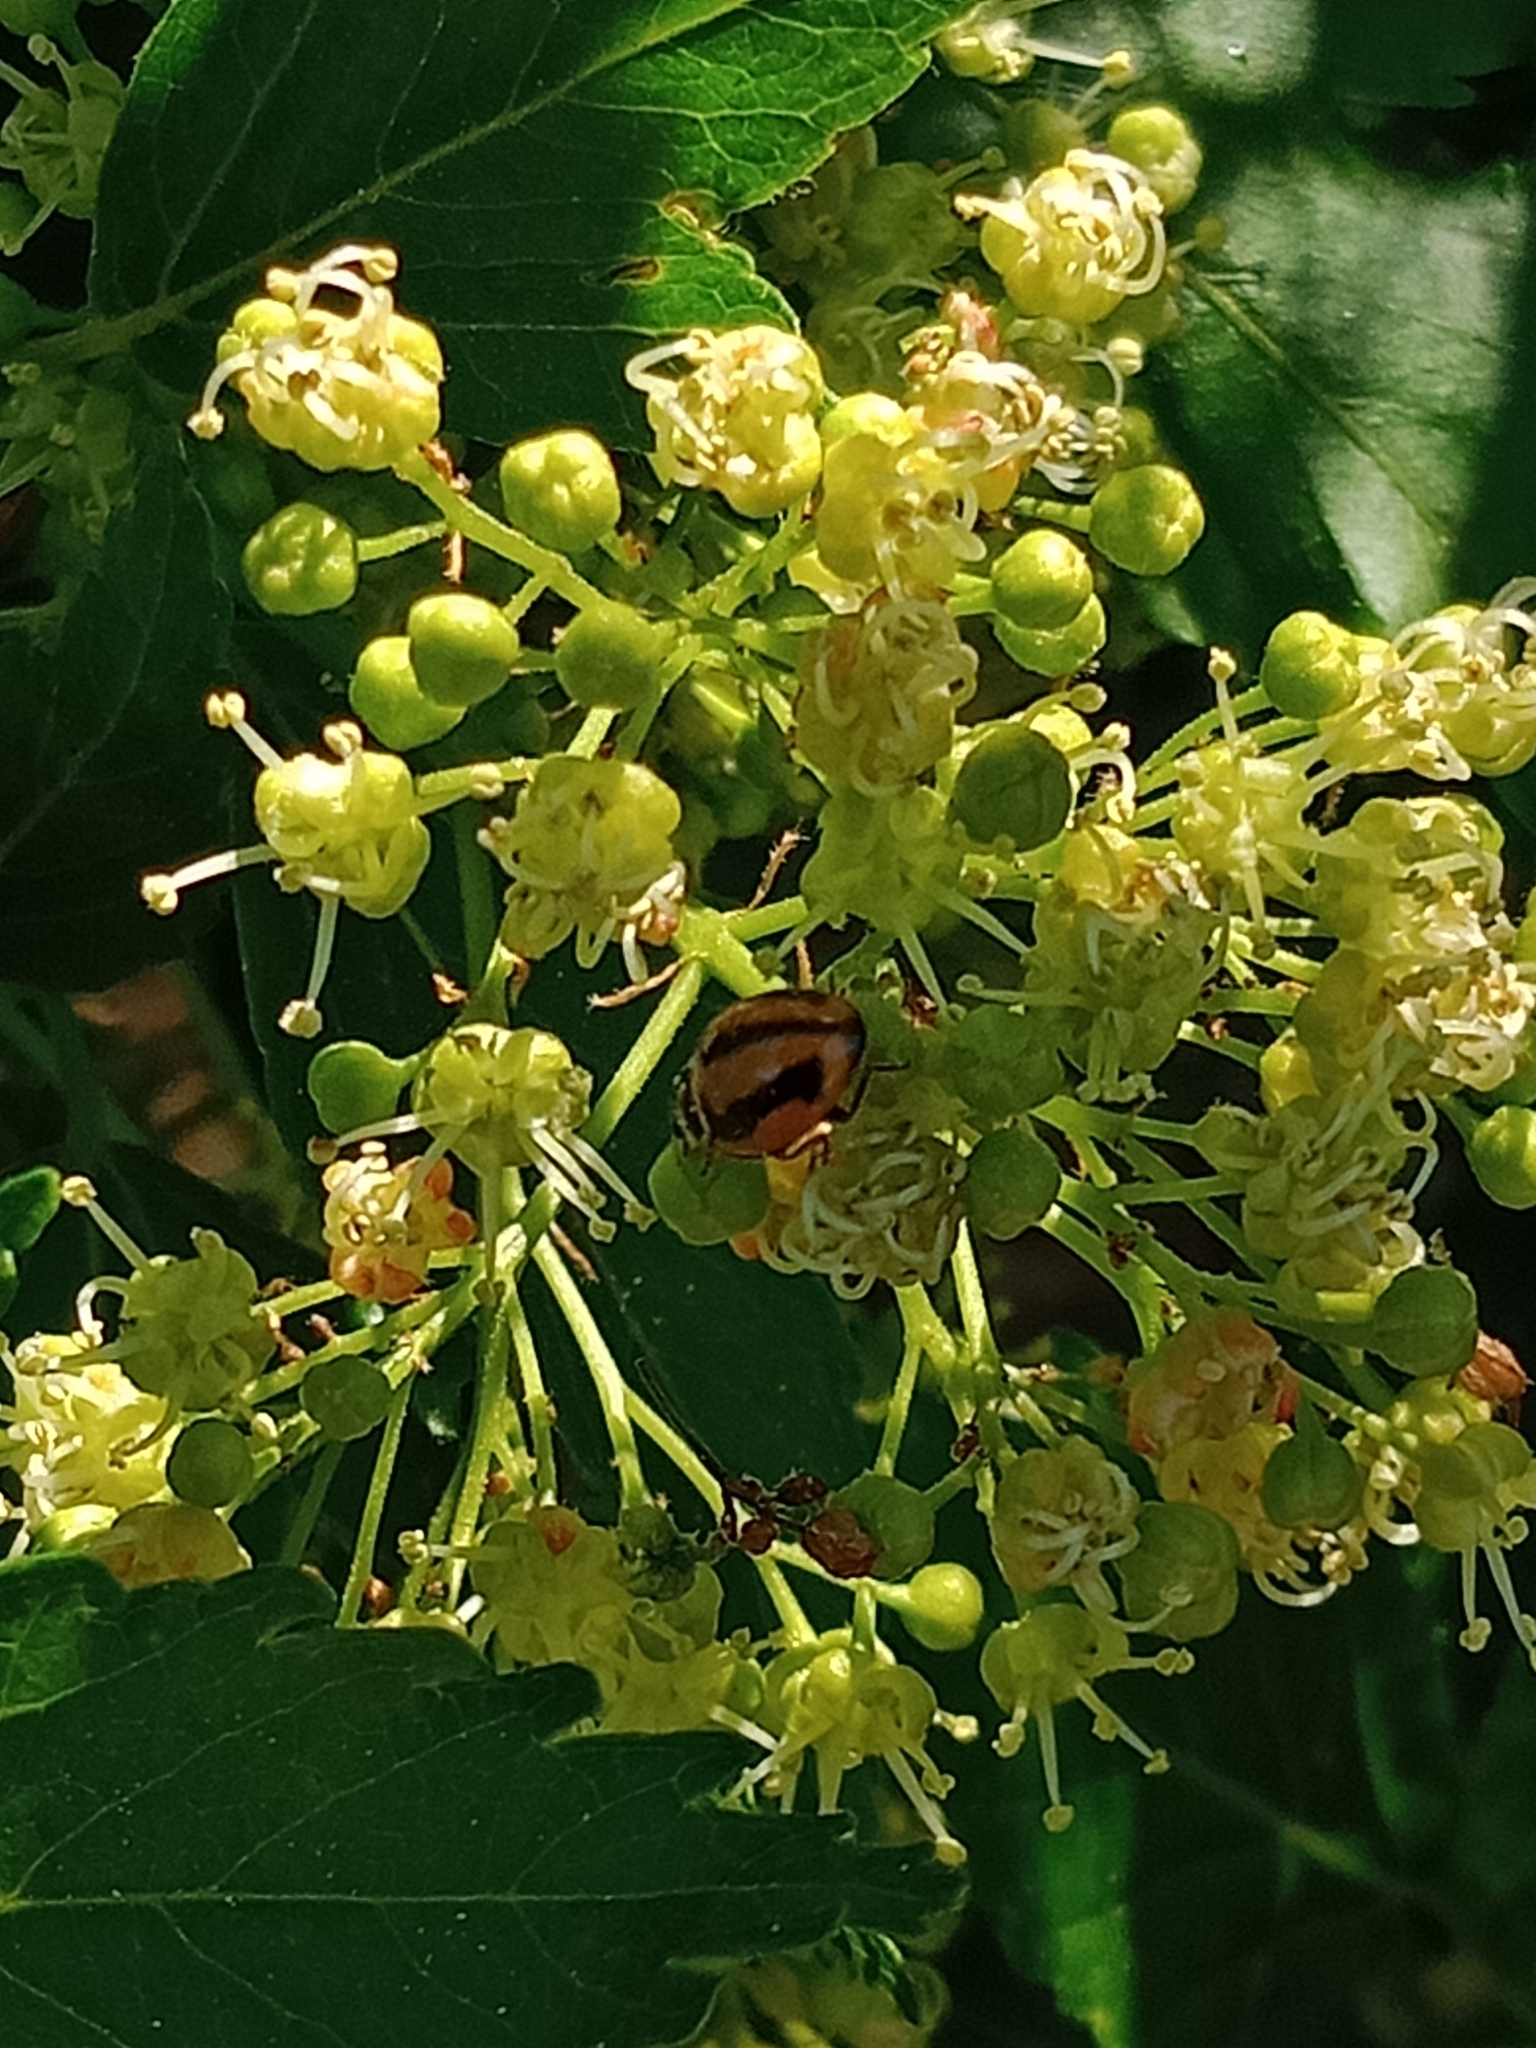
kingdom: Animalia
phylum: Arthropoda
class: Insecta
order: Coleoptera
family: Coccinellidae
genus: Micraspis
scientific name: Micraspis frenata
